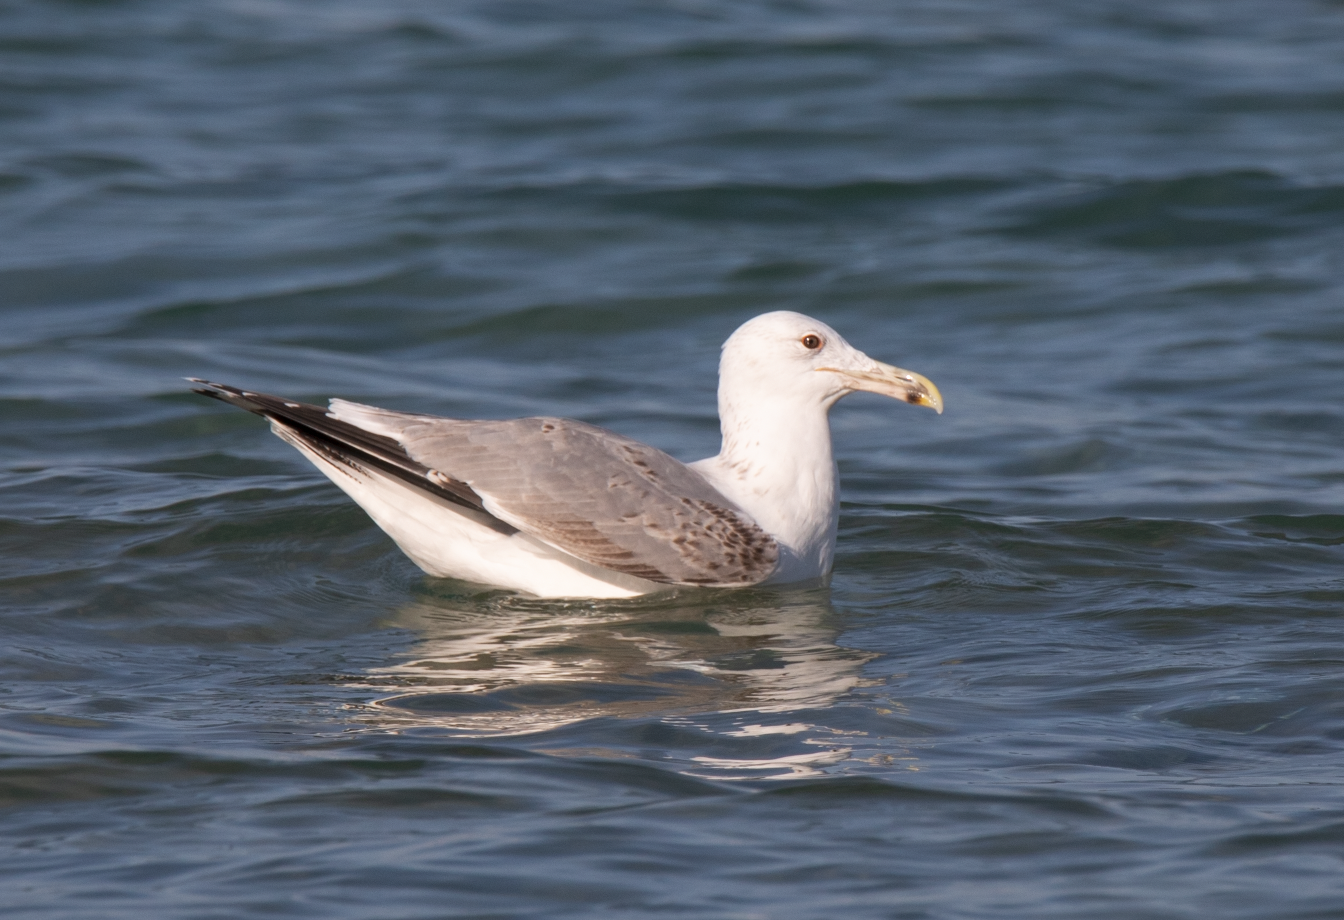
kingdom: Animalia
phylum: Chordata
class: Aves
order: Charadriiformes
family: Laridae
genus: Larus
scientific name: Larus cachinnans
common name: Caspian gull
